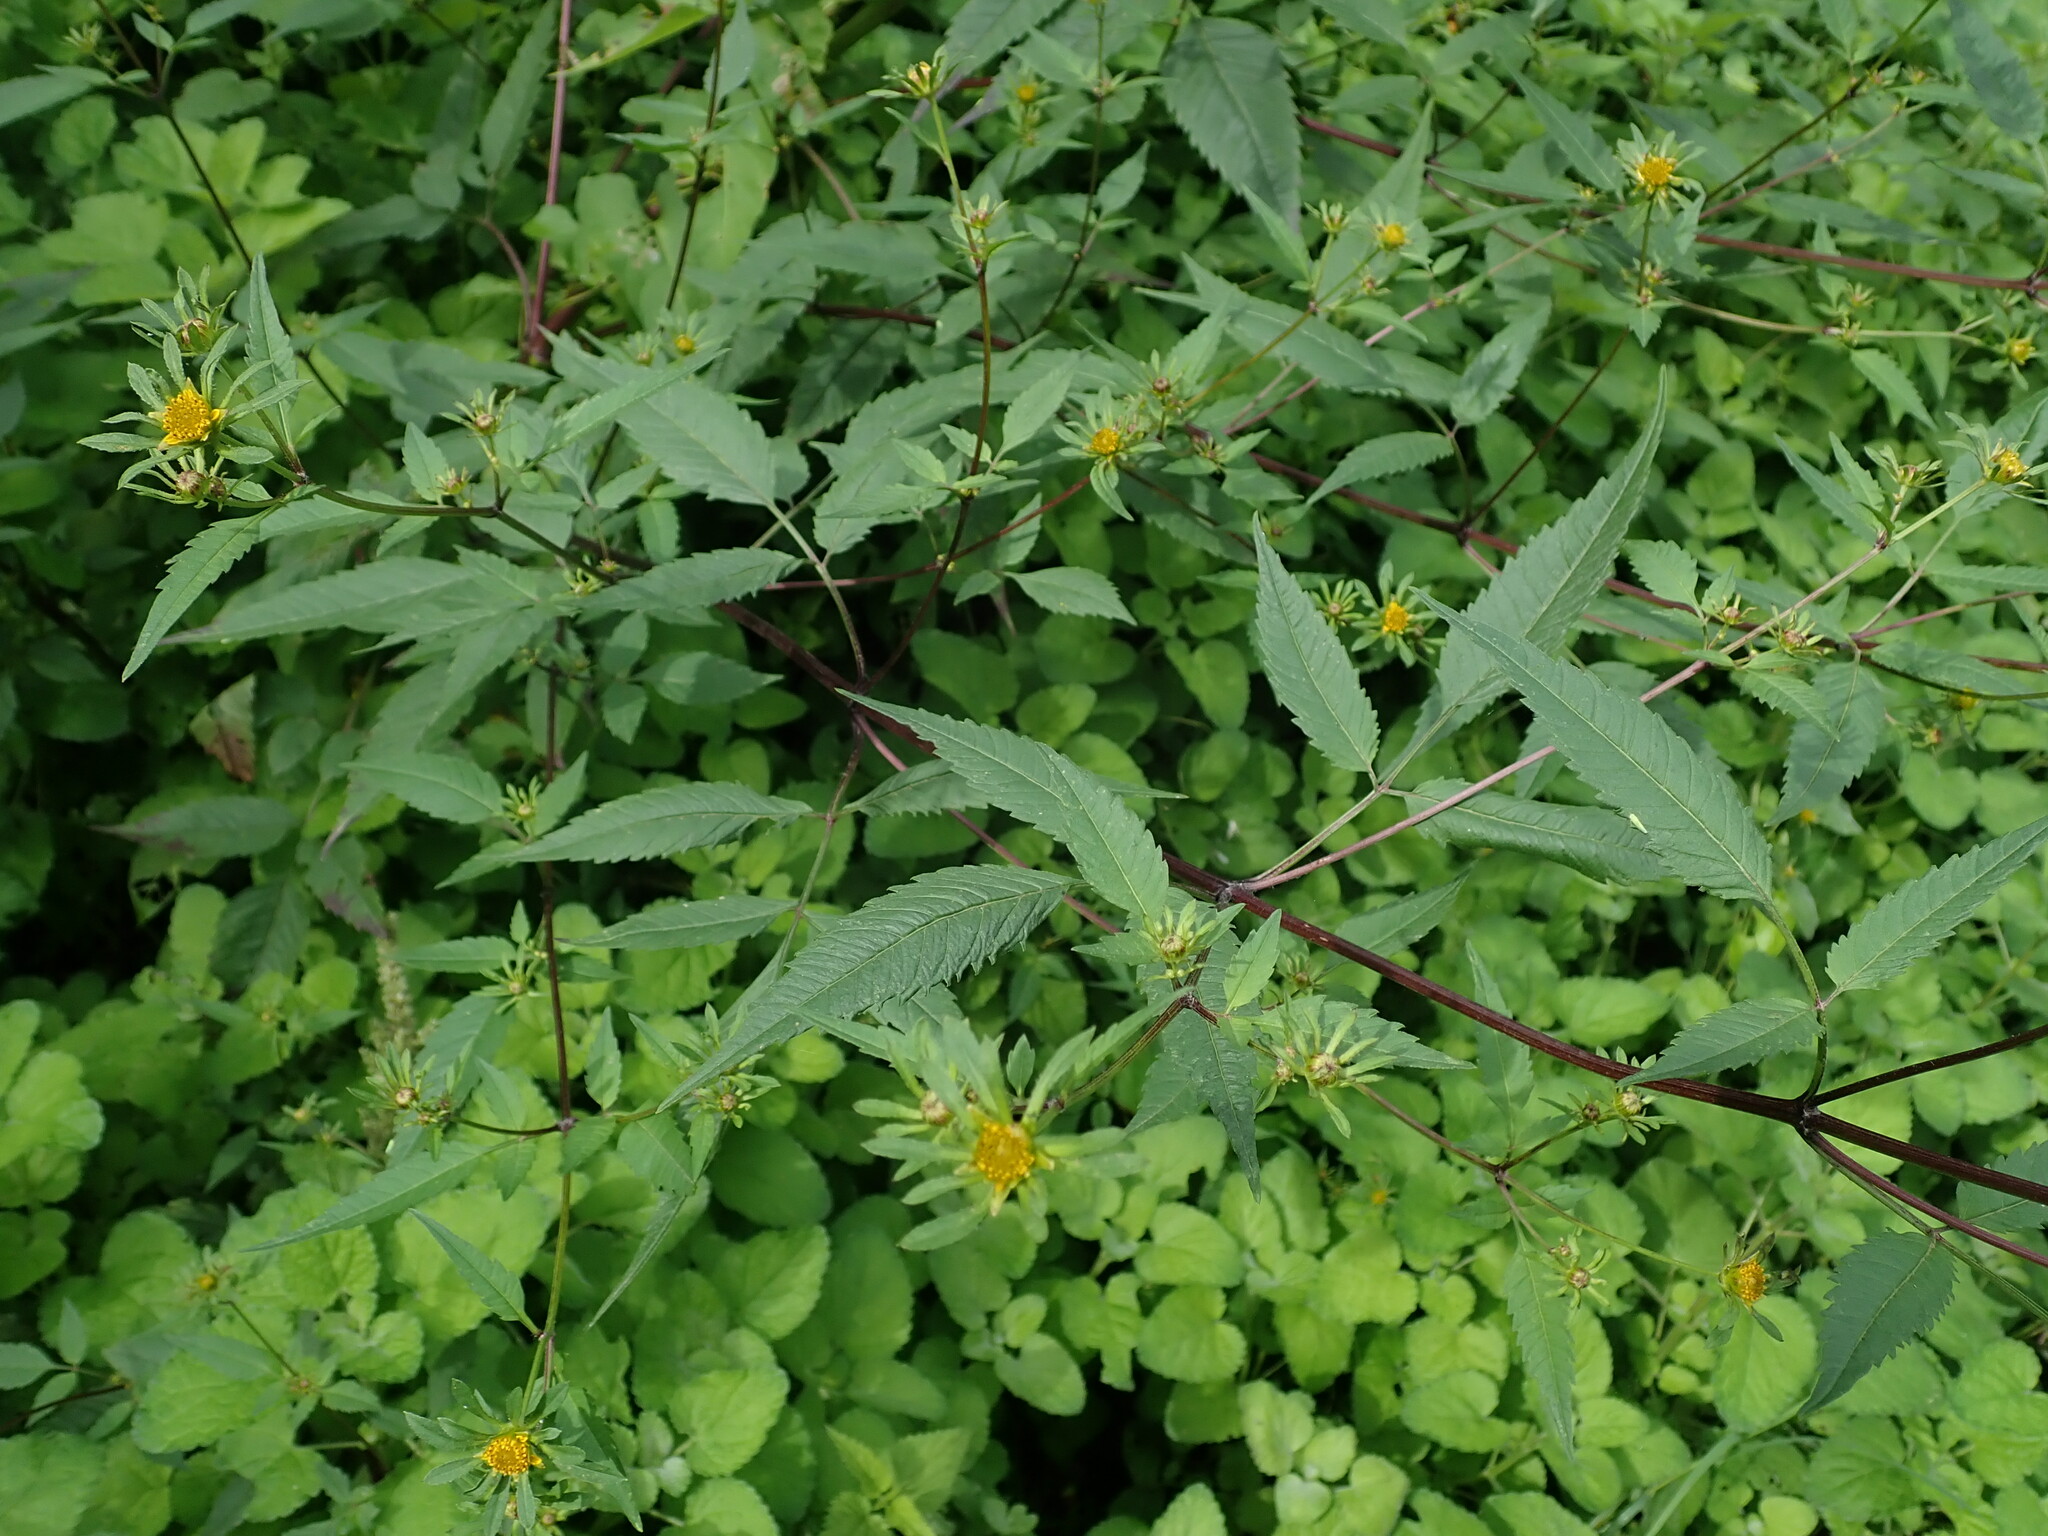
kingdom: Plantae
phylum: Tracheophyta
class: Magnoliopsida
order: Asterales
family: Asteraceae
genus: Bidens
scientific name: Bidens frondosa
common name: Beggarticks
